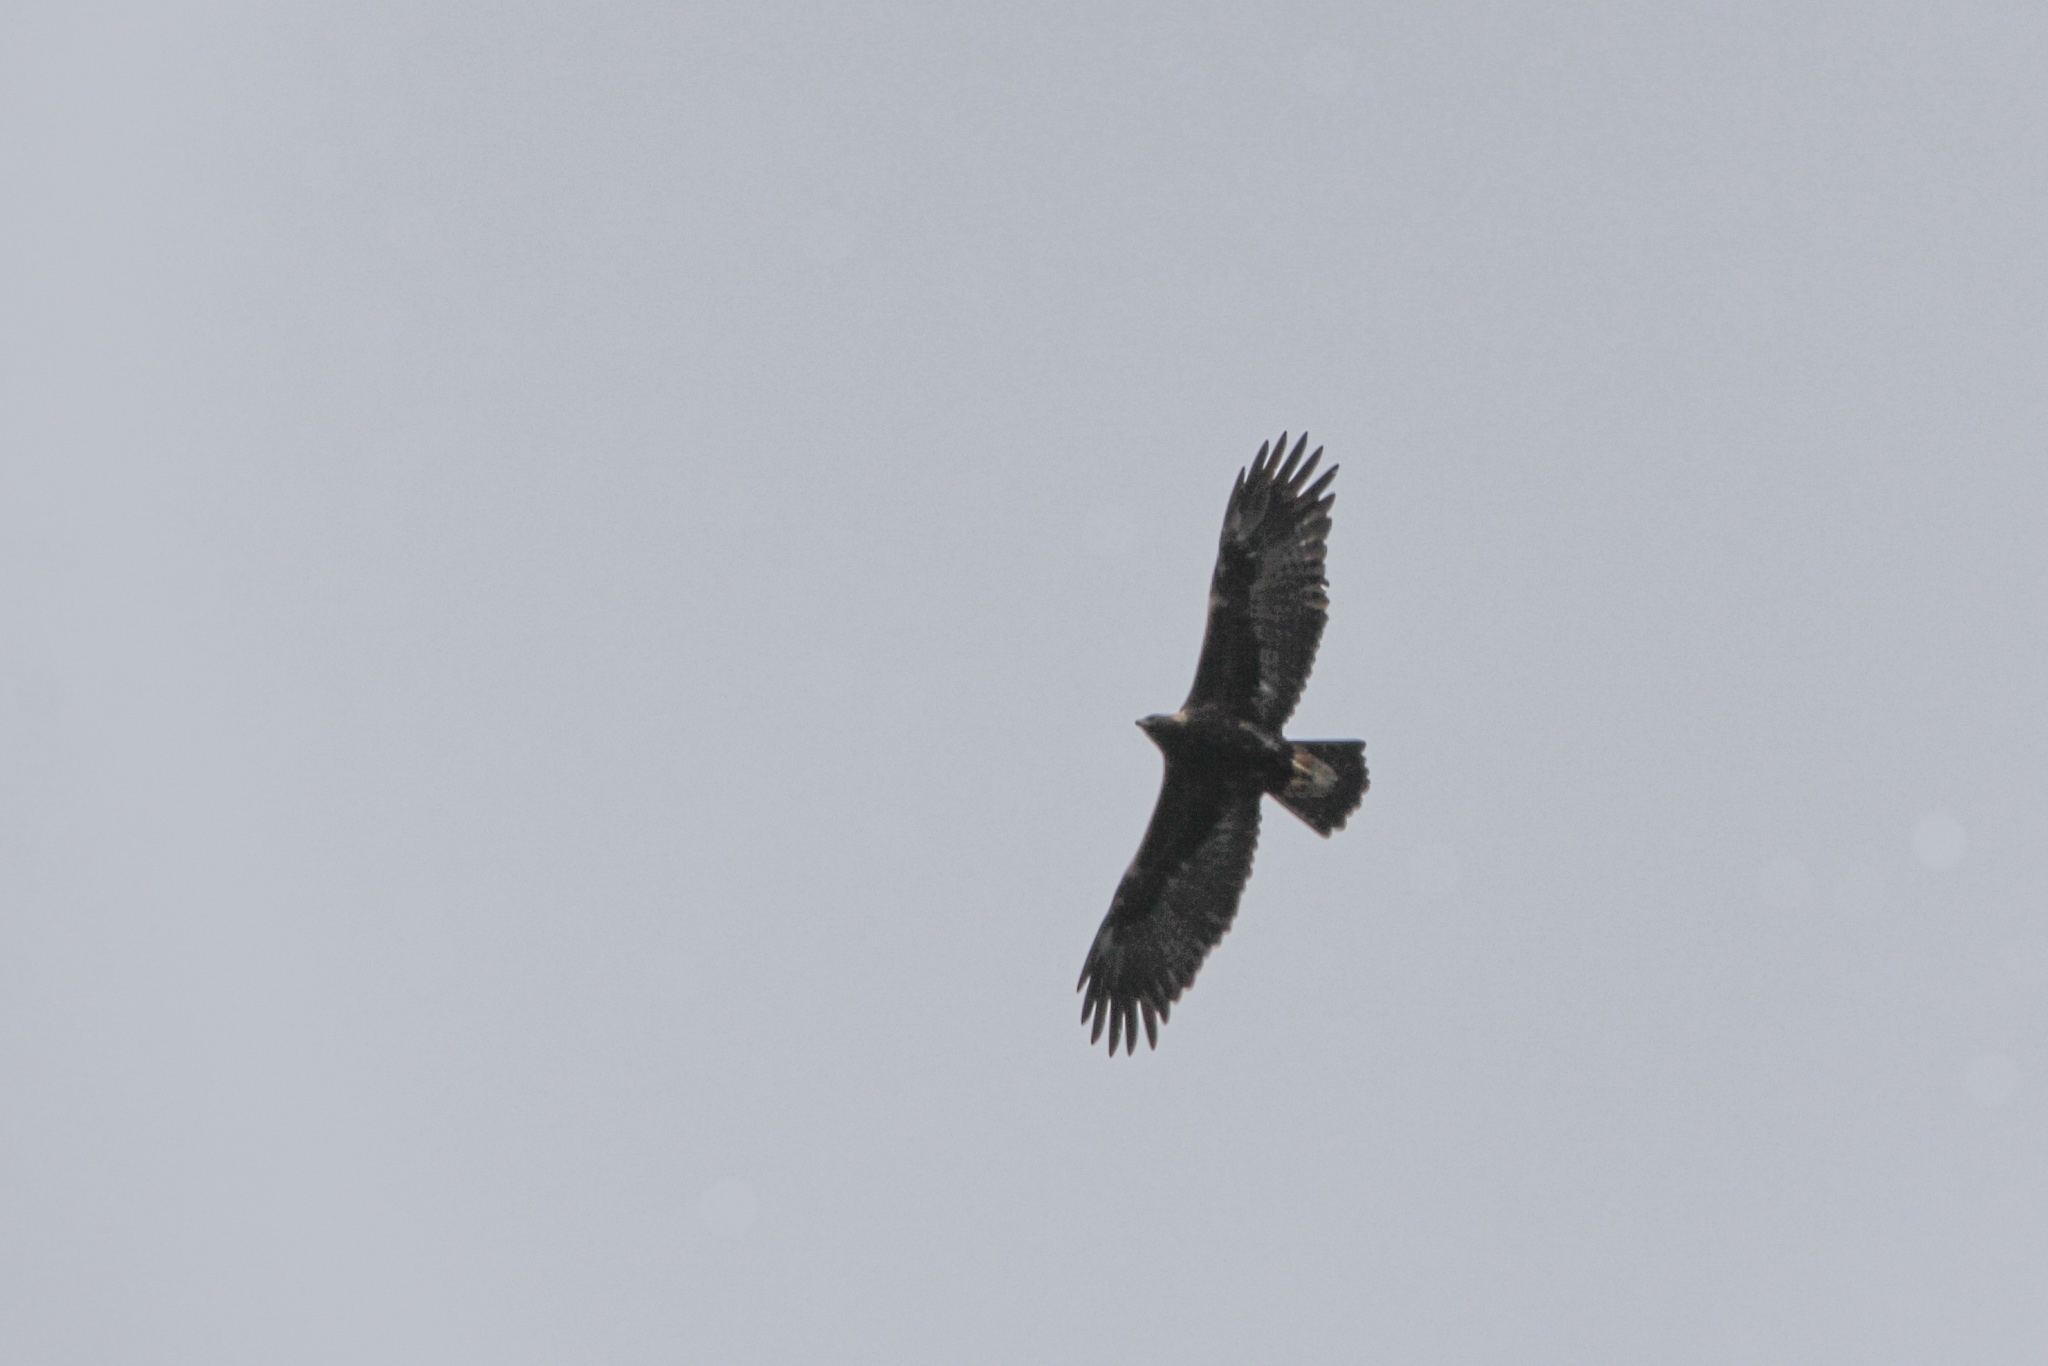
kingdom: Animalia
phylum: Chordata
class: Aves
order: Accipitriformes
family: Accipitridae
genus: Aquila
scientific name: Aquila chrysaetos
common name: Golden eagle
